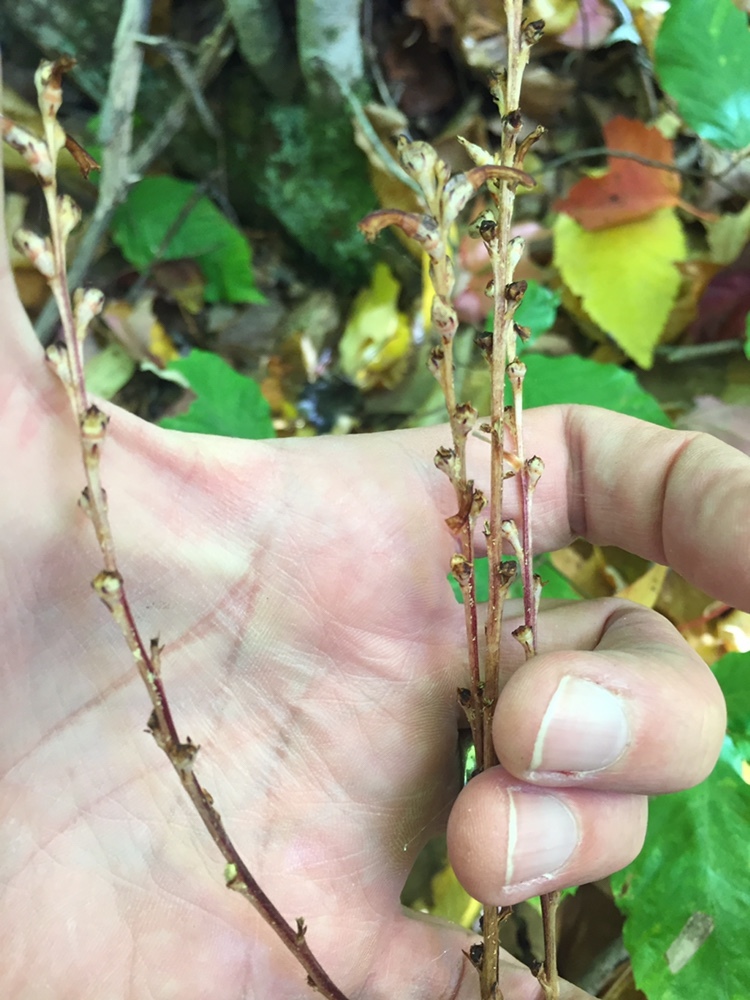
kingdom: Plantae
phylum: Tracheophyta
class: Magnoliopsida
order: Lamiales
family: Orobanchaceae
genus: Epifagus
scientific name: Epifagus virginiana
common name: Beechdrops
